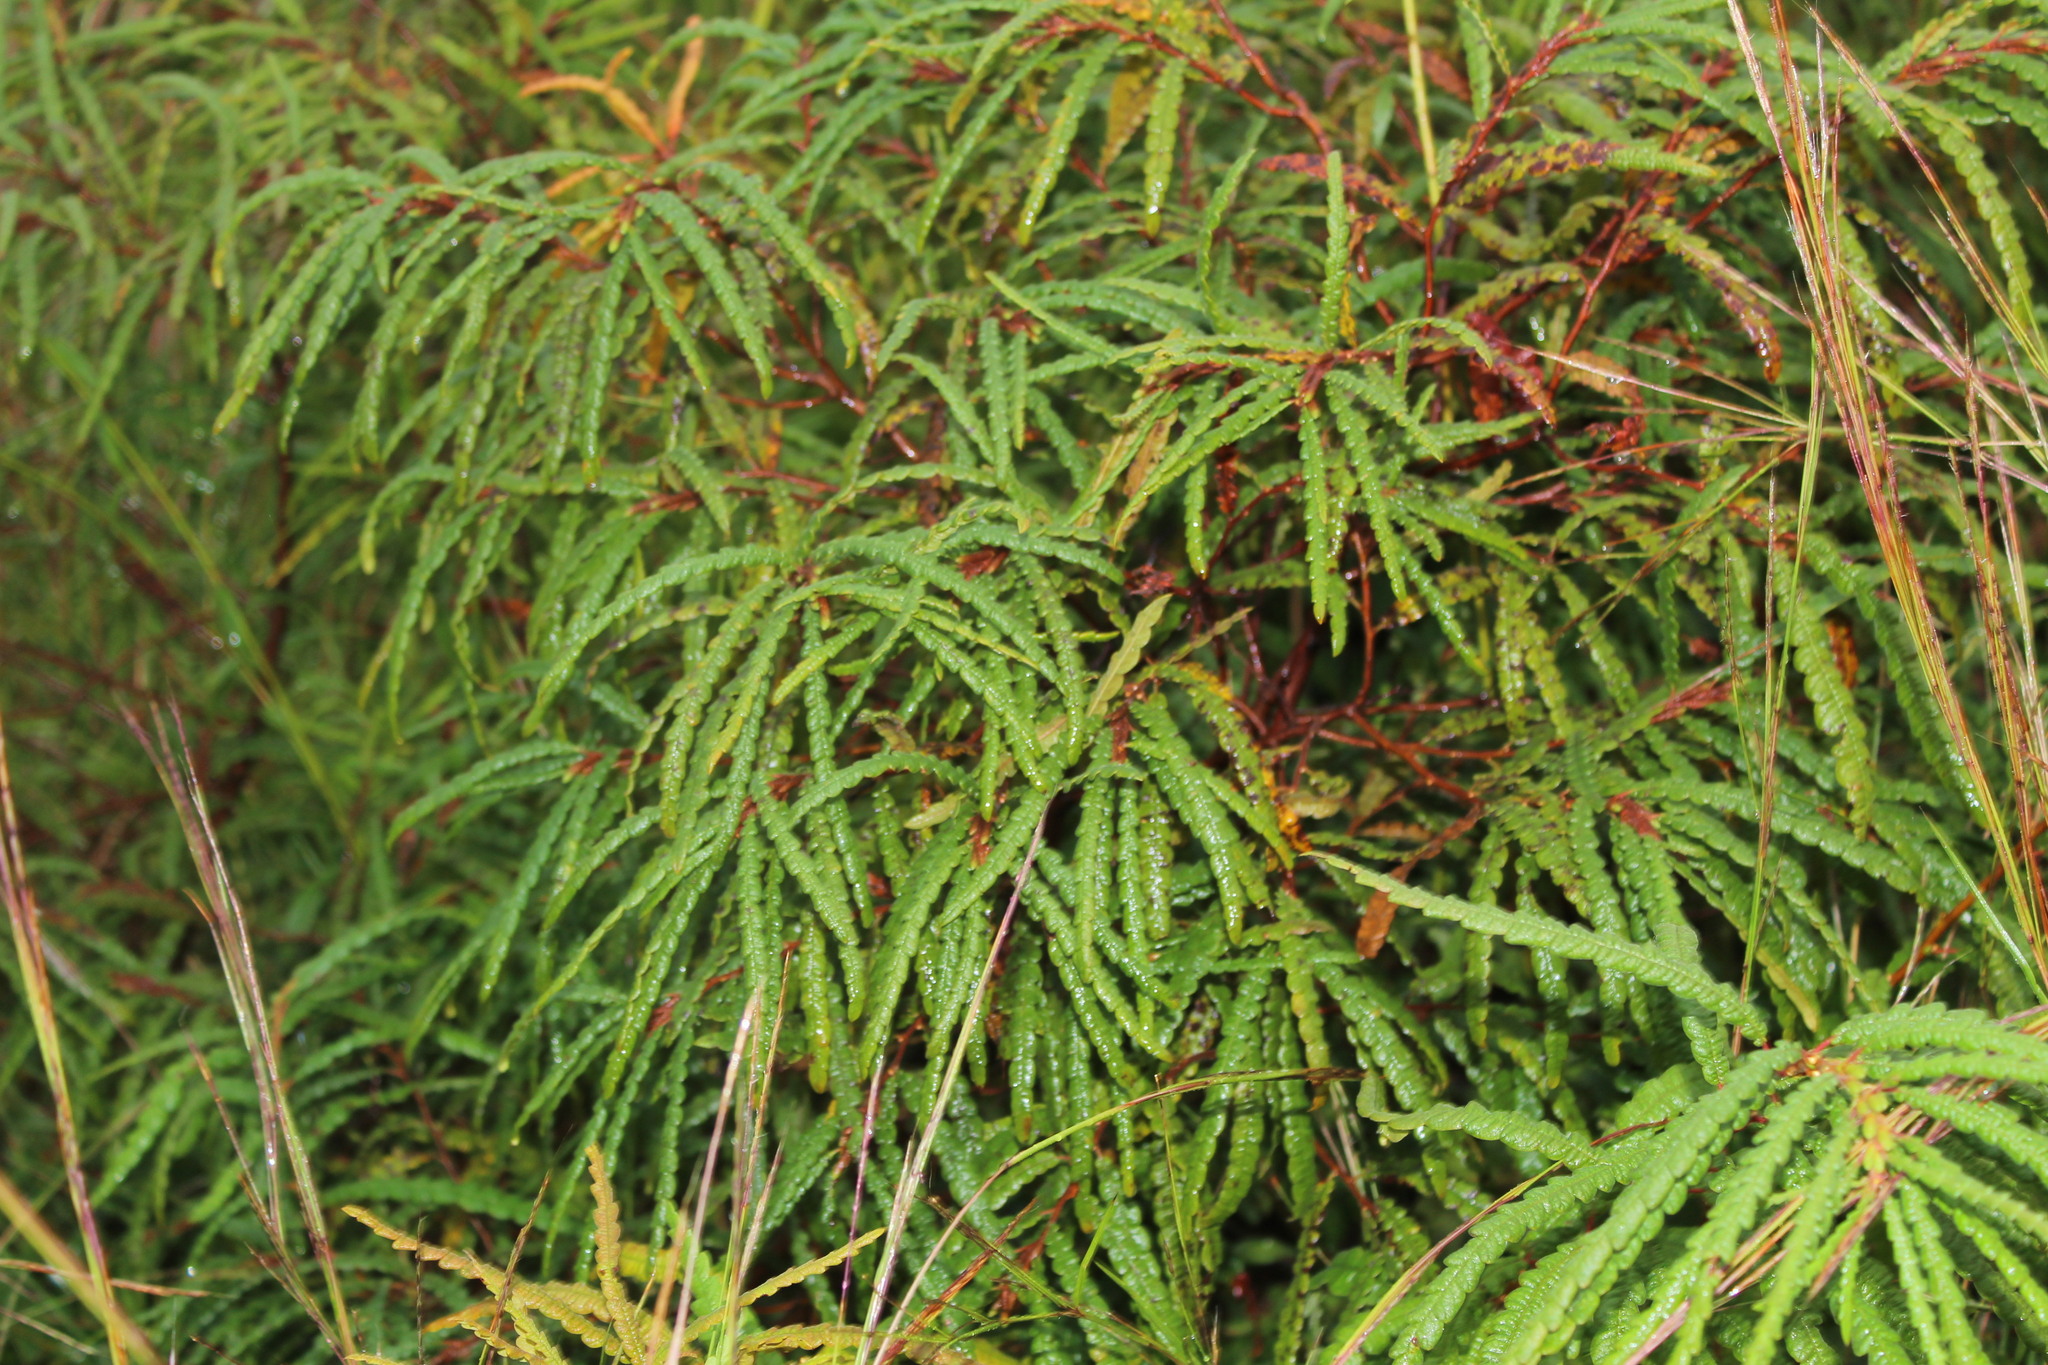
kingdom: Plantae
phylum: Tracheophyta
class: Magnoliopsida
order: Fagales
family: Myricaceae
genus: Comptonia
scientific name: Comptonia peregrina
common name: Sweet-fern
